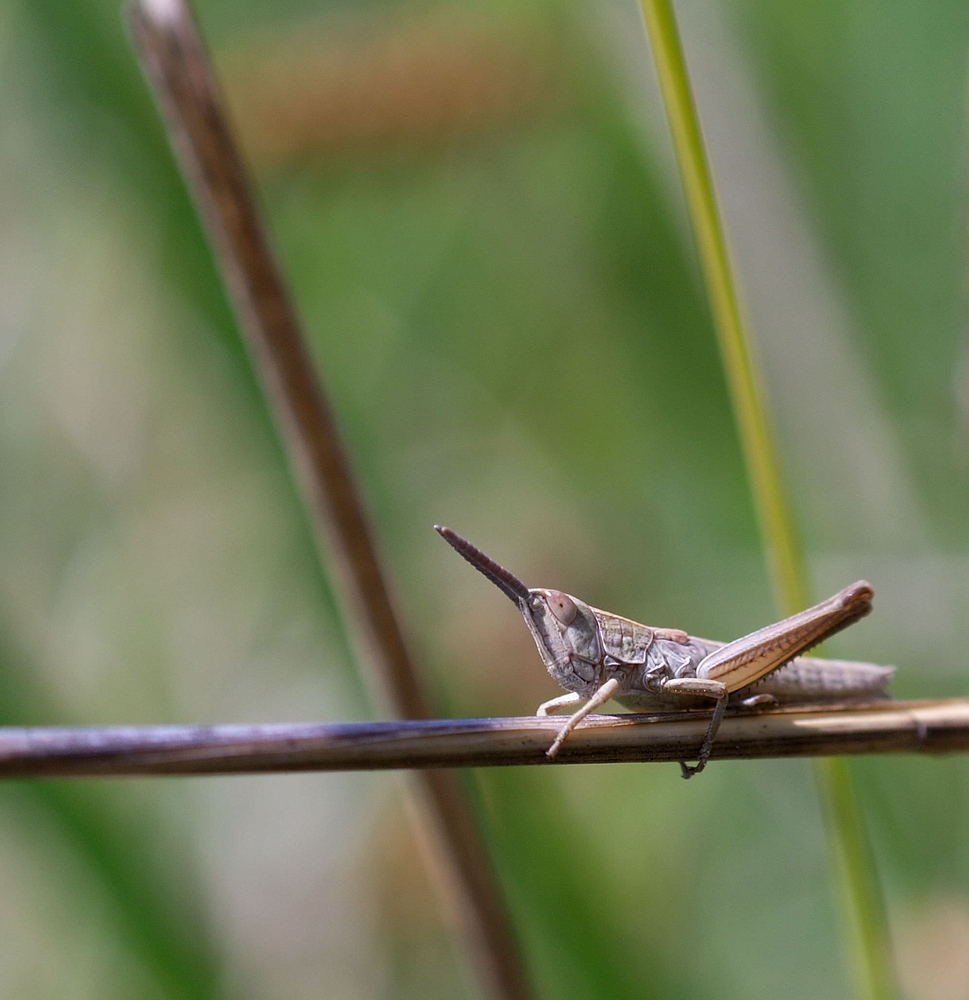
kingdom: Animalia
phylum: Arthropoda
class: Insecta
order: Orthoptera
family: Acrididae
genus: Chrysochraon
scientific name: Chrysochraon dispar
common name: Large gold grasshopper
